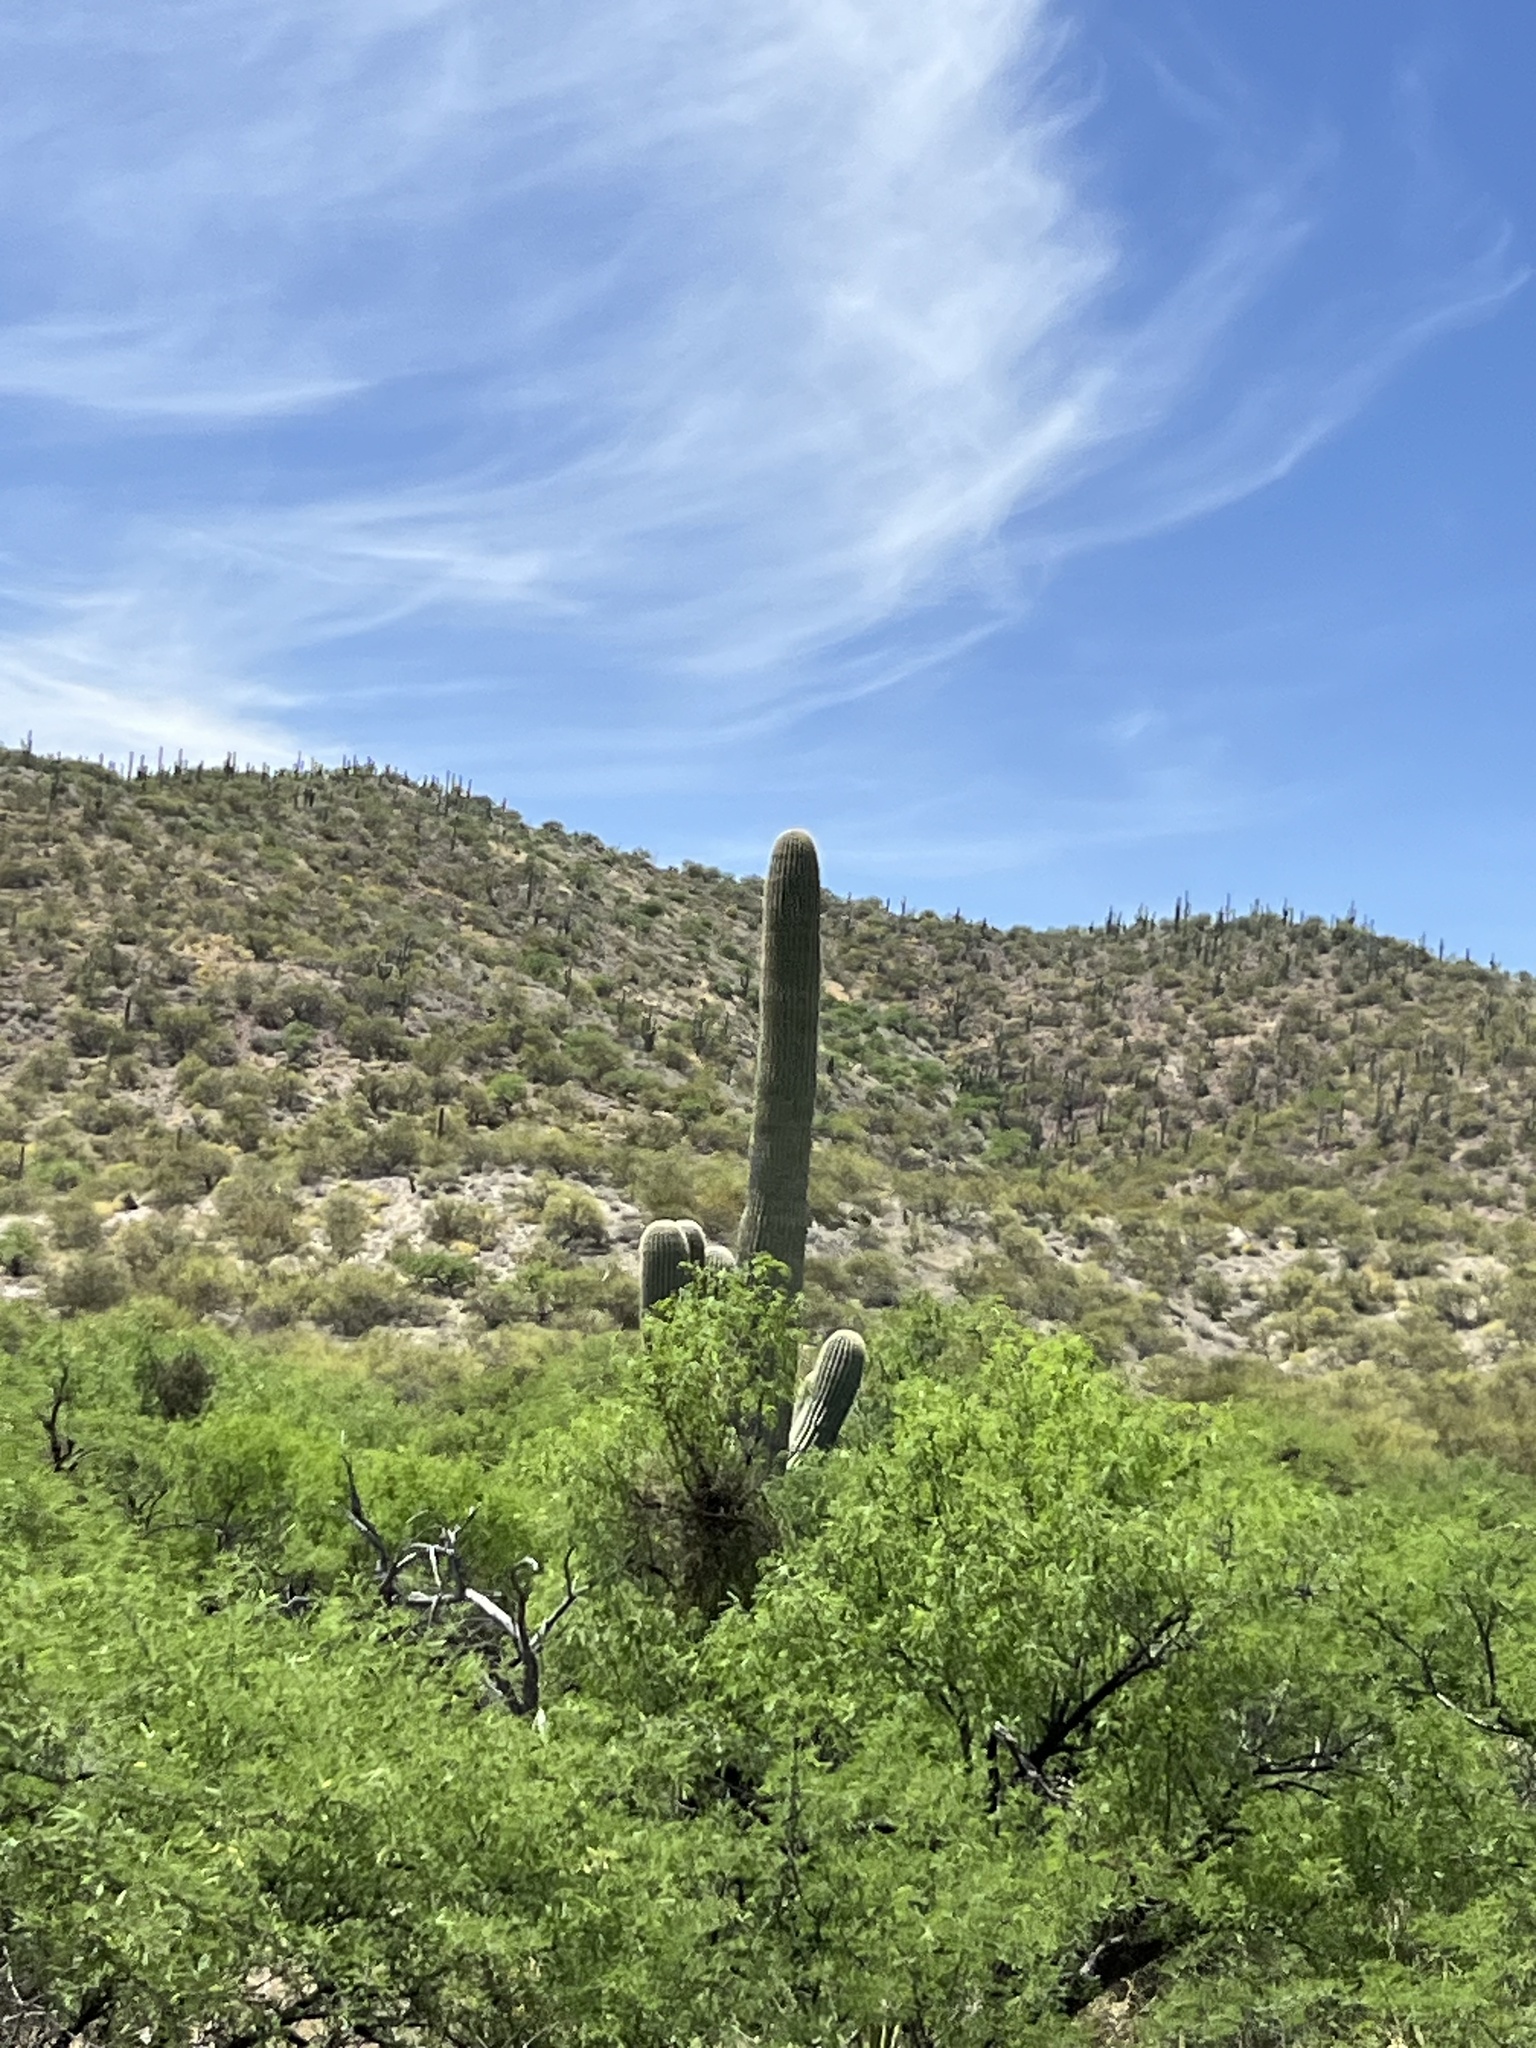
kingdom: Plantae
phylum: Tracheophyta
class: Magnoliopsida
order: Caryophyllales
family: Cactaceae
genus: Carnegiea
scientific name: Carnegiea gigantea
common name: Saguaro
